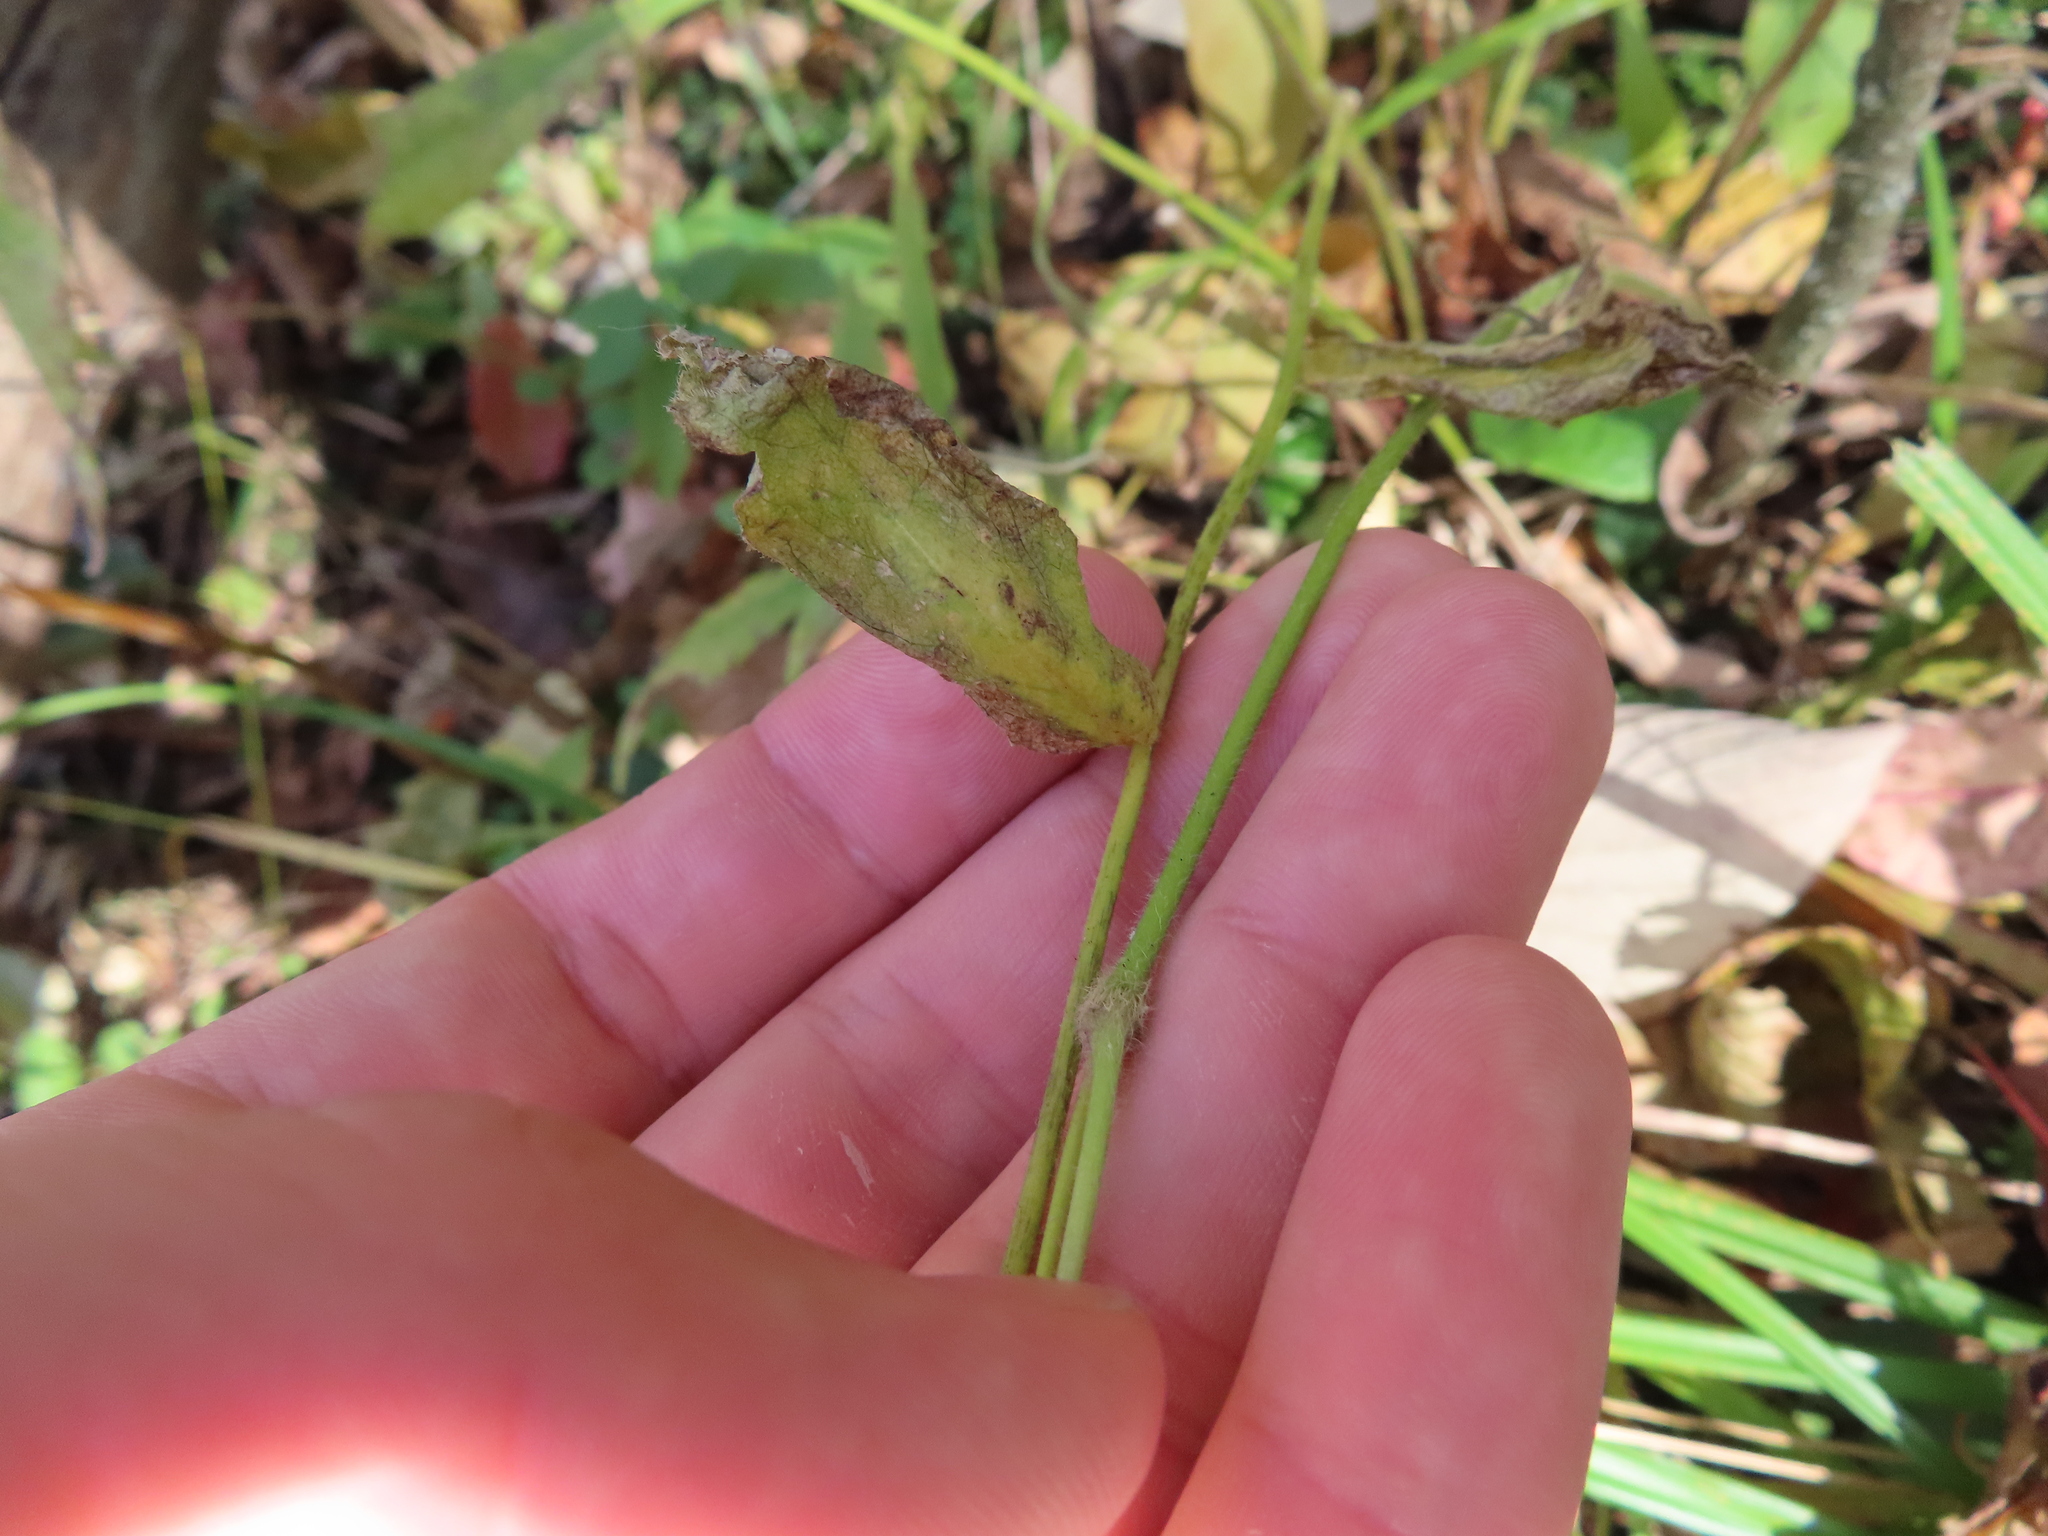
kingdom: Plantae
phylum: Tracheophyta
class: Magnoliopsida
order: Ranunculales
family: Ranunculaceae
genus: Anemone
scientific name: Anemone virginiana
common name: Tall anemone
